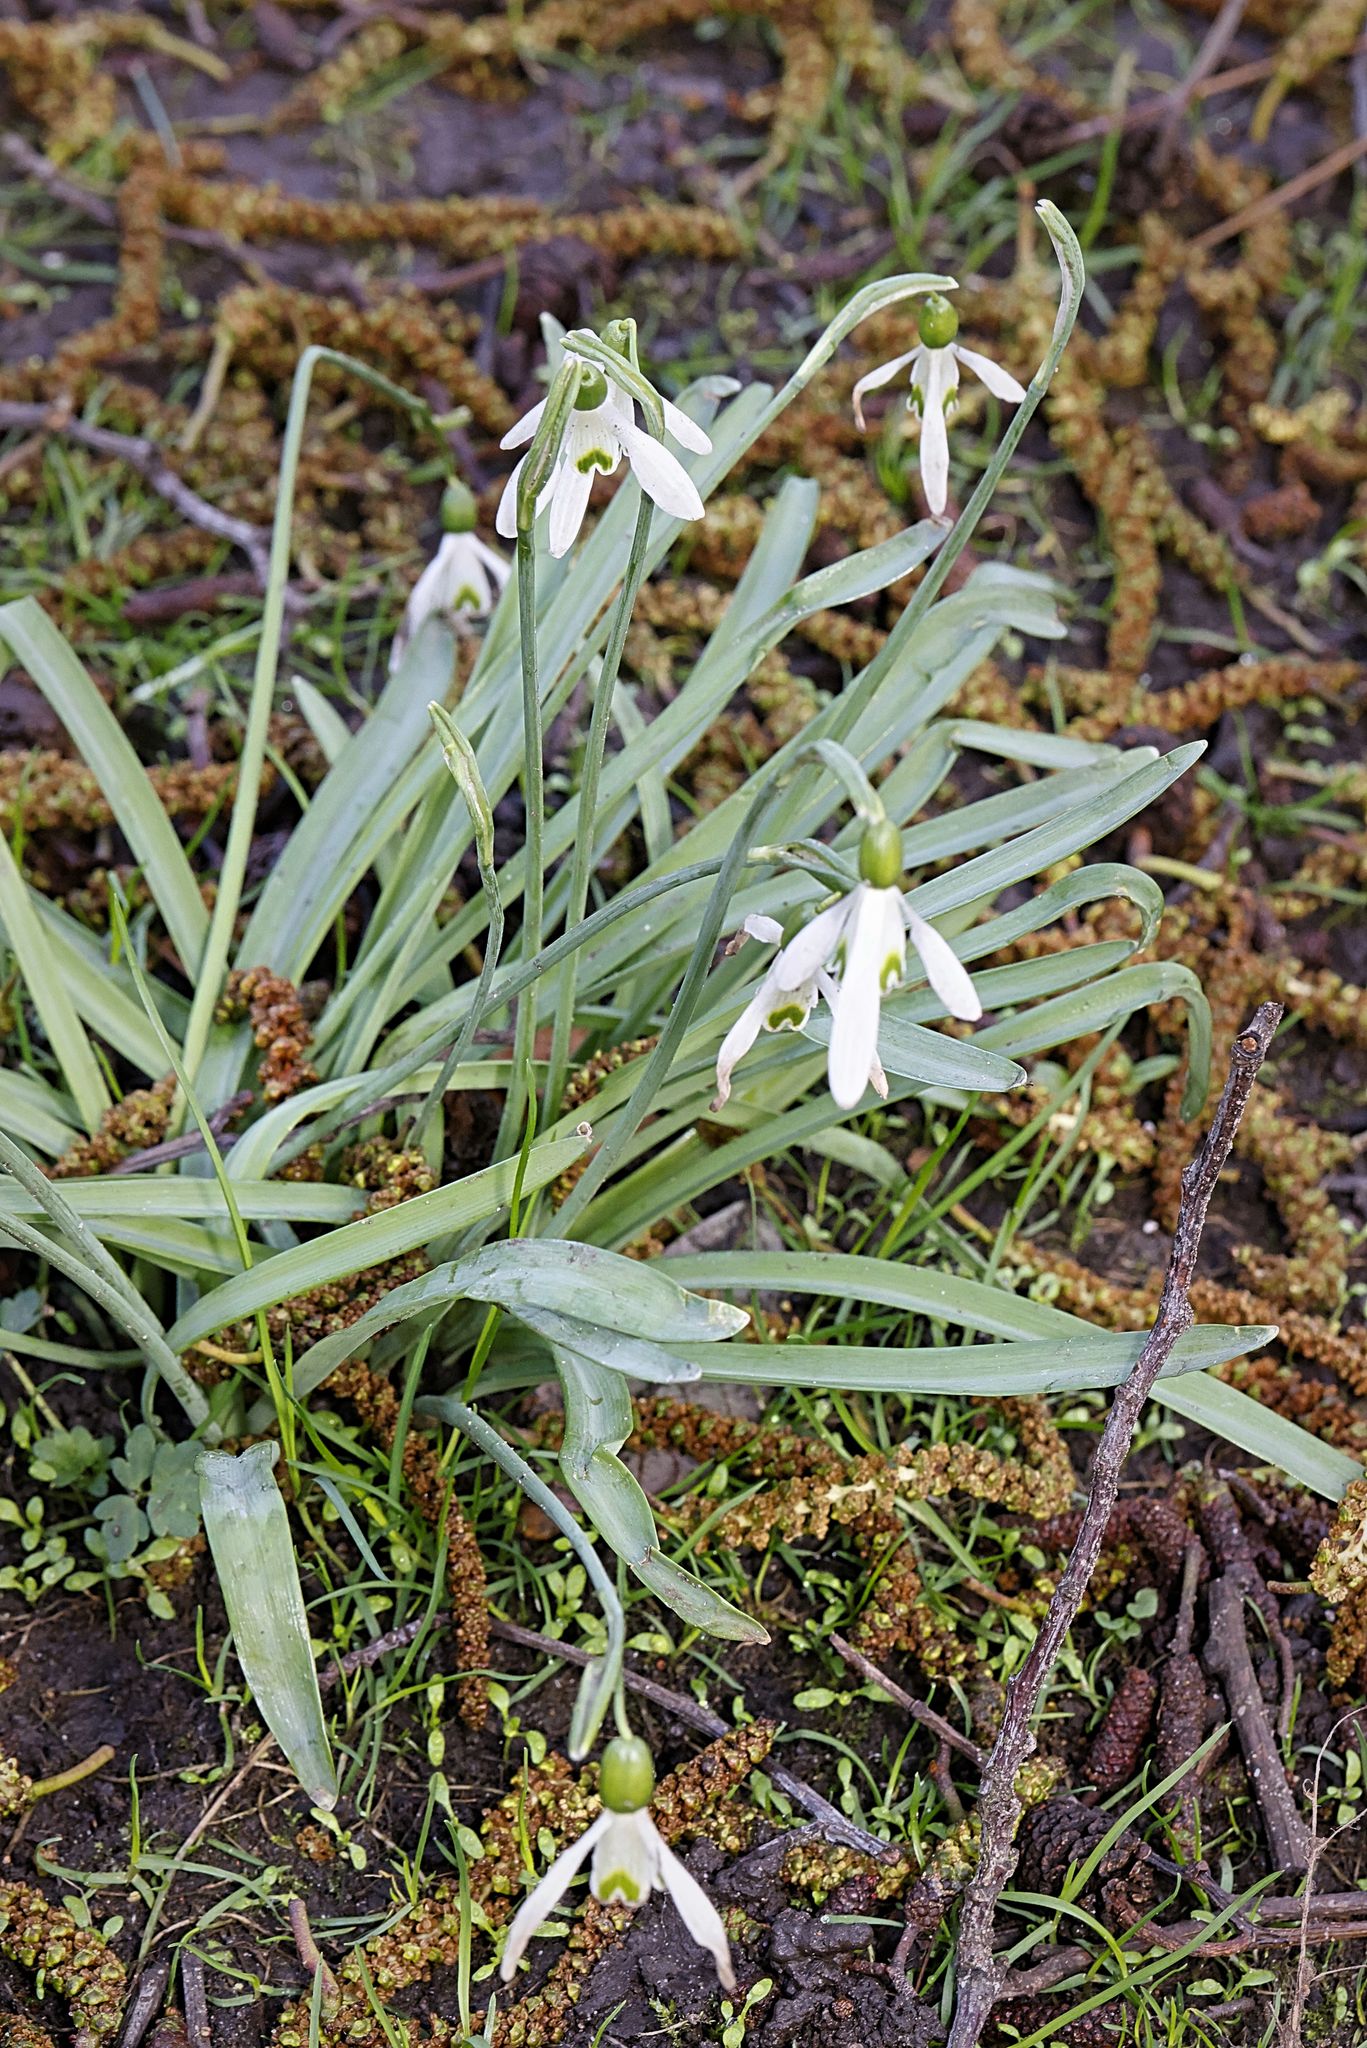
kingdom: Plantae
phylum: Tracheophyta
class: Liliopsida
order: Asparagales
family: Amaryllidaceae
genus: Galanthus
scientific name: Galanthus nivalis
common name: Snowdrop
